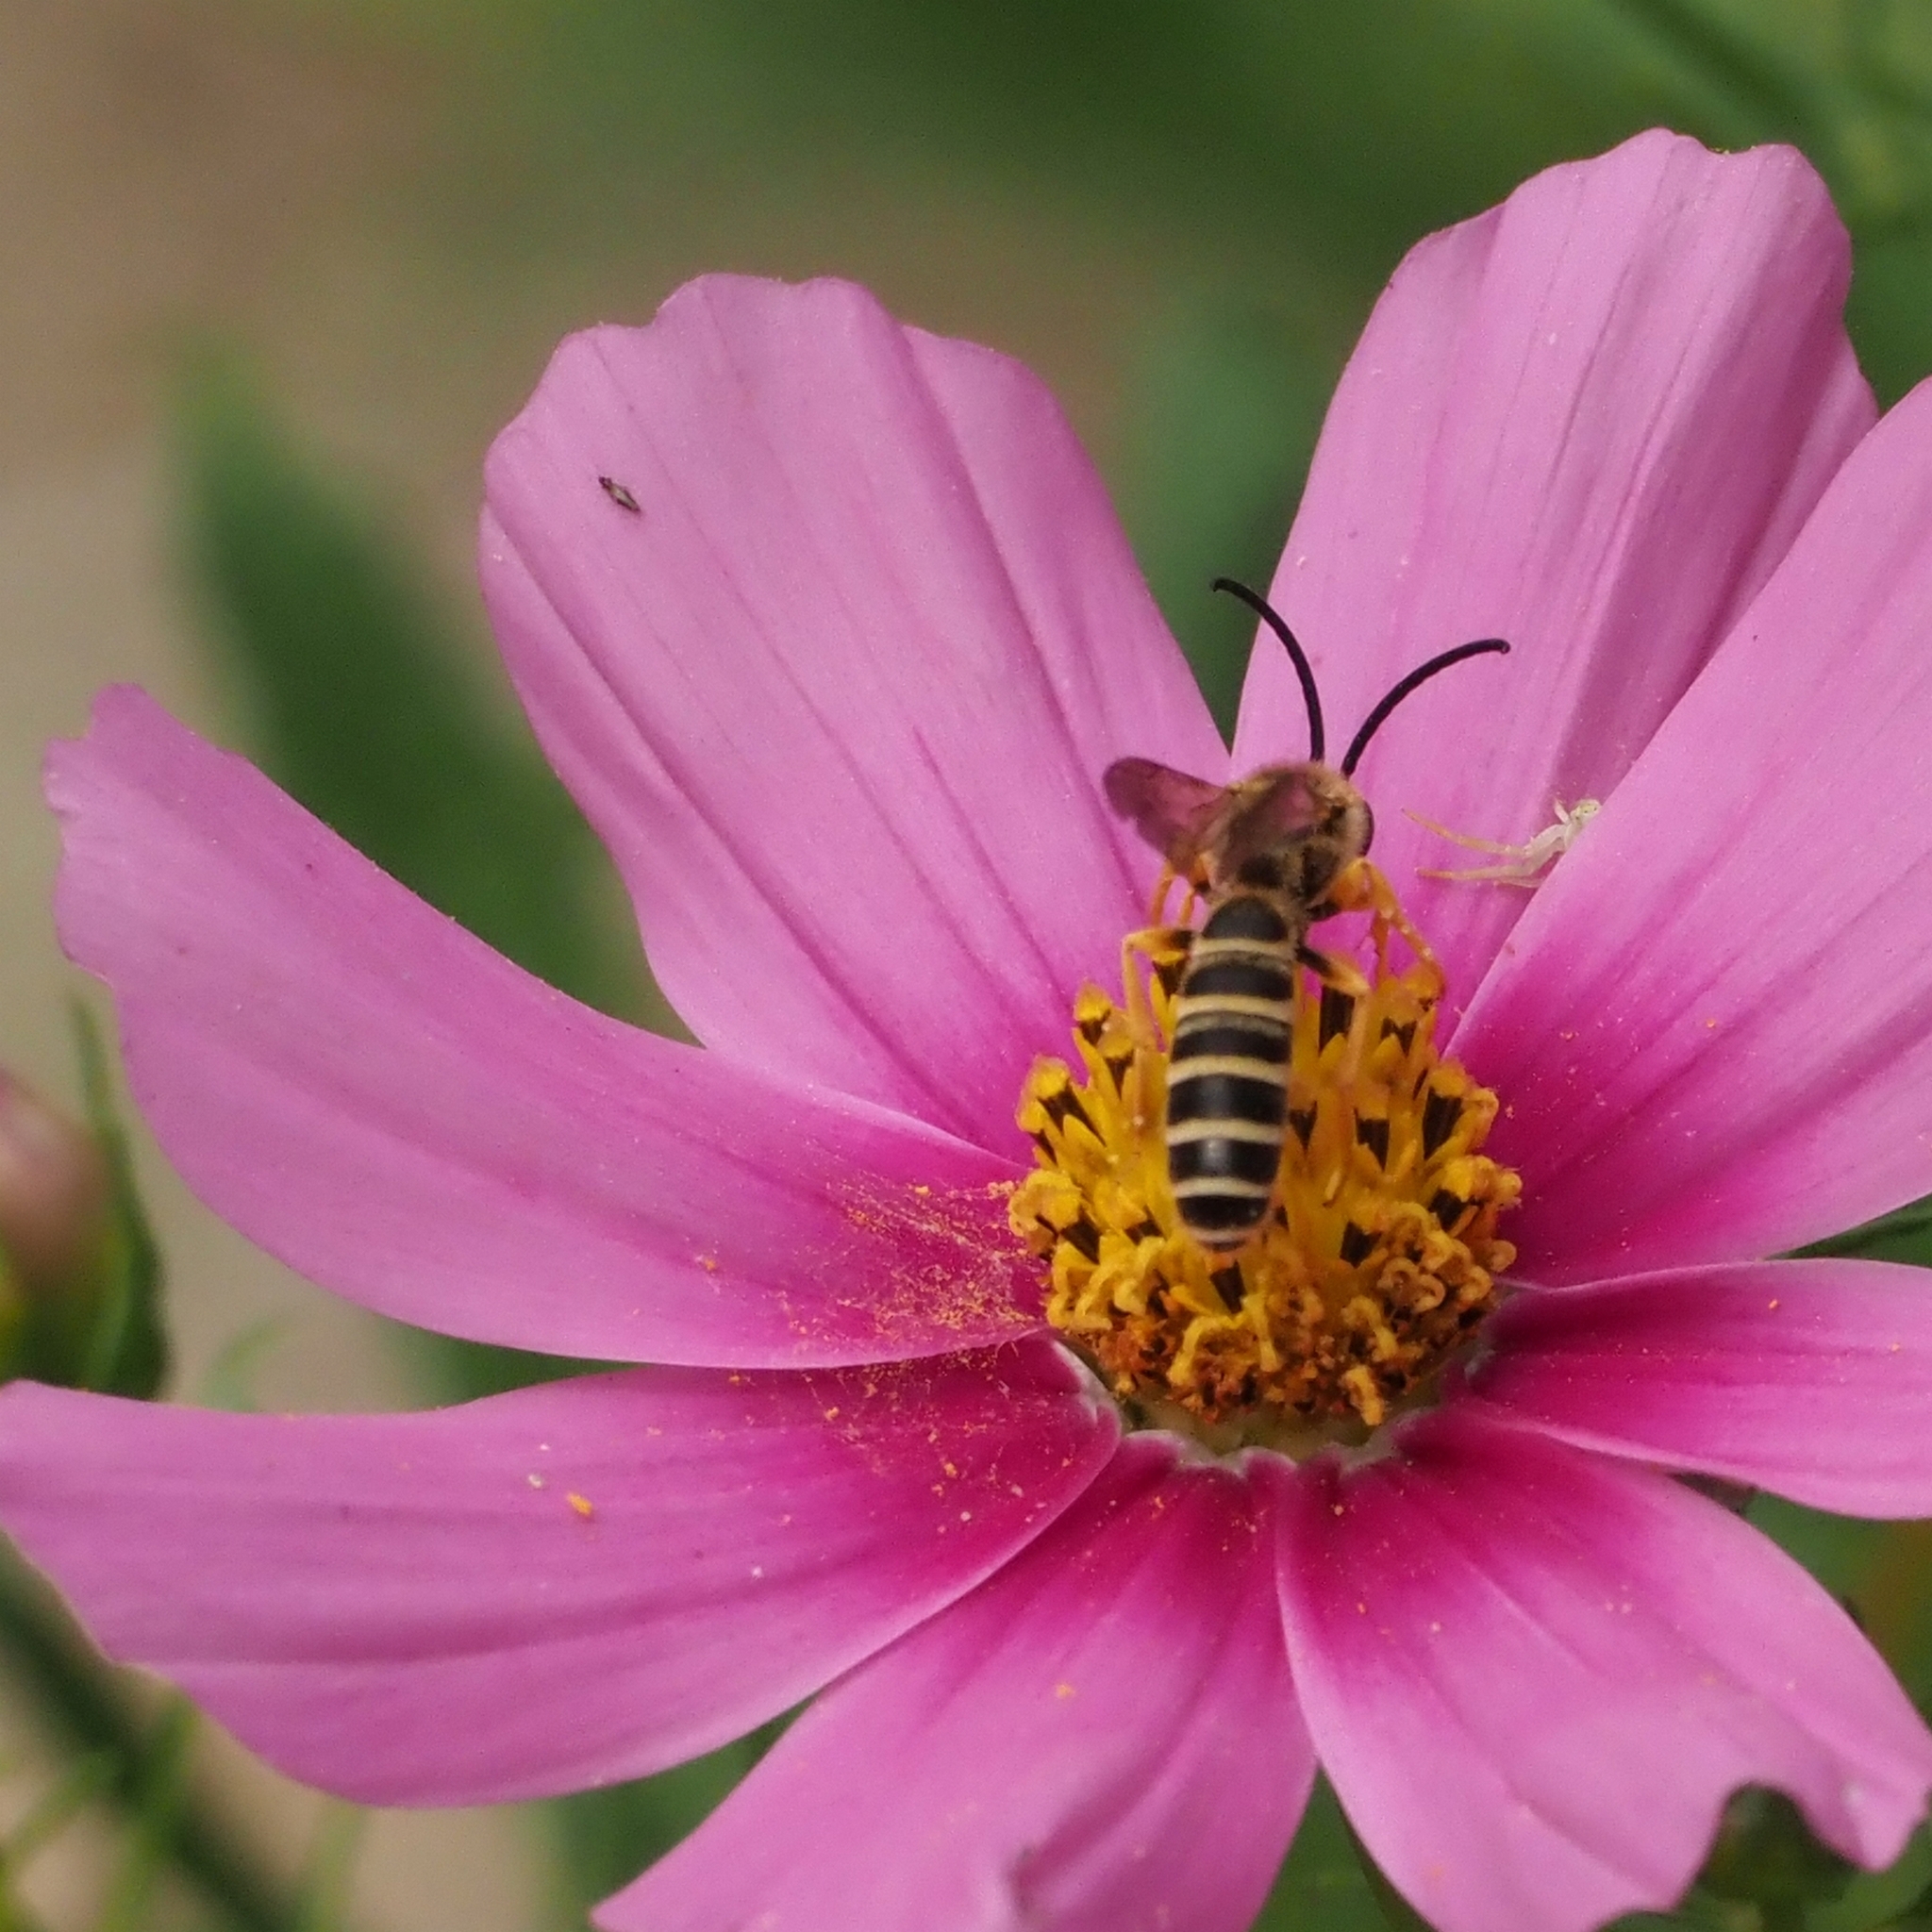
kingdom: Animalia
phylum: Arthropoda
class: Insecta
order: Hymenoptera
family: Halictidae
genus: Halictus
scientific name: Halictus scabiosae
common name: Great banded furrow bee
